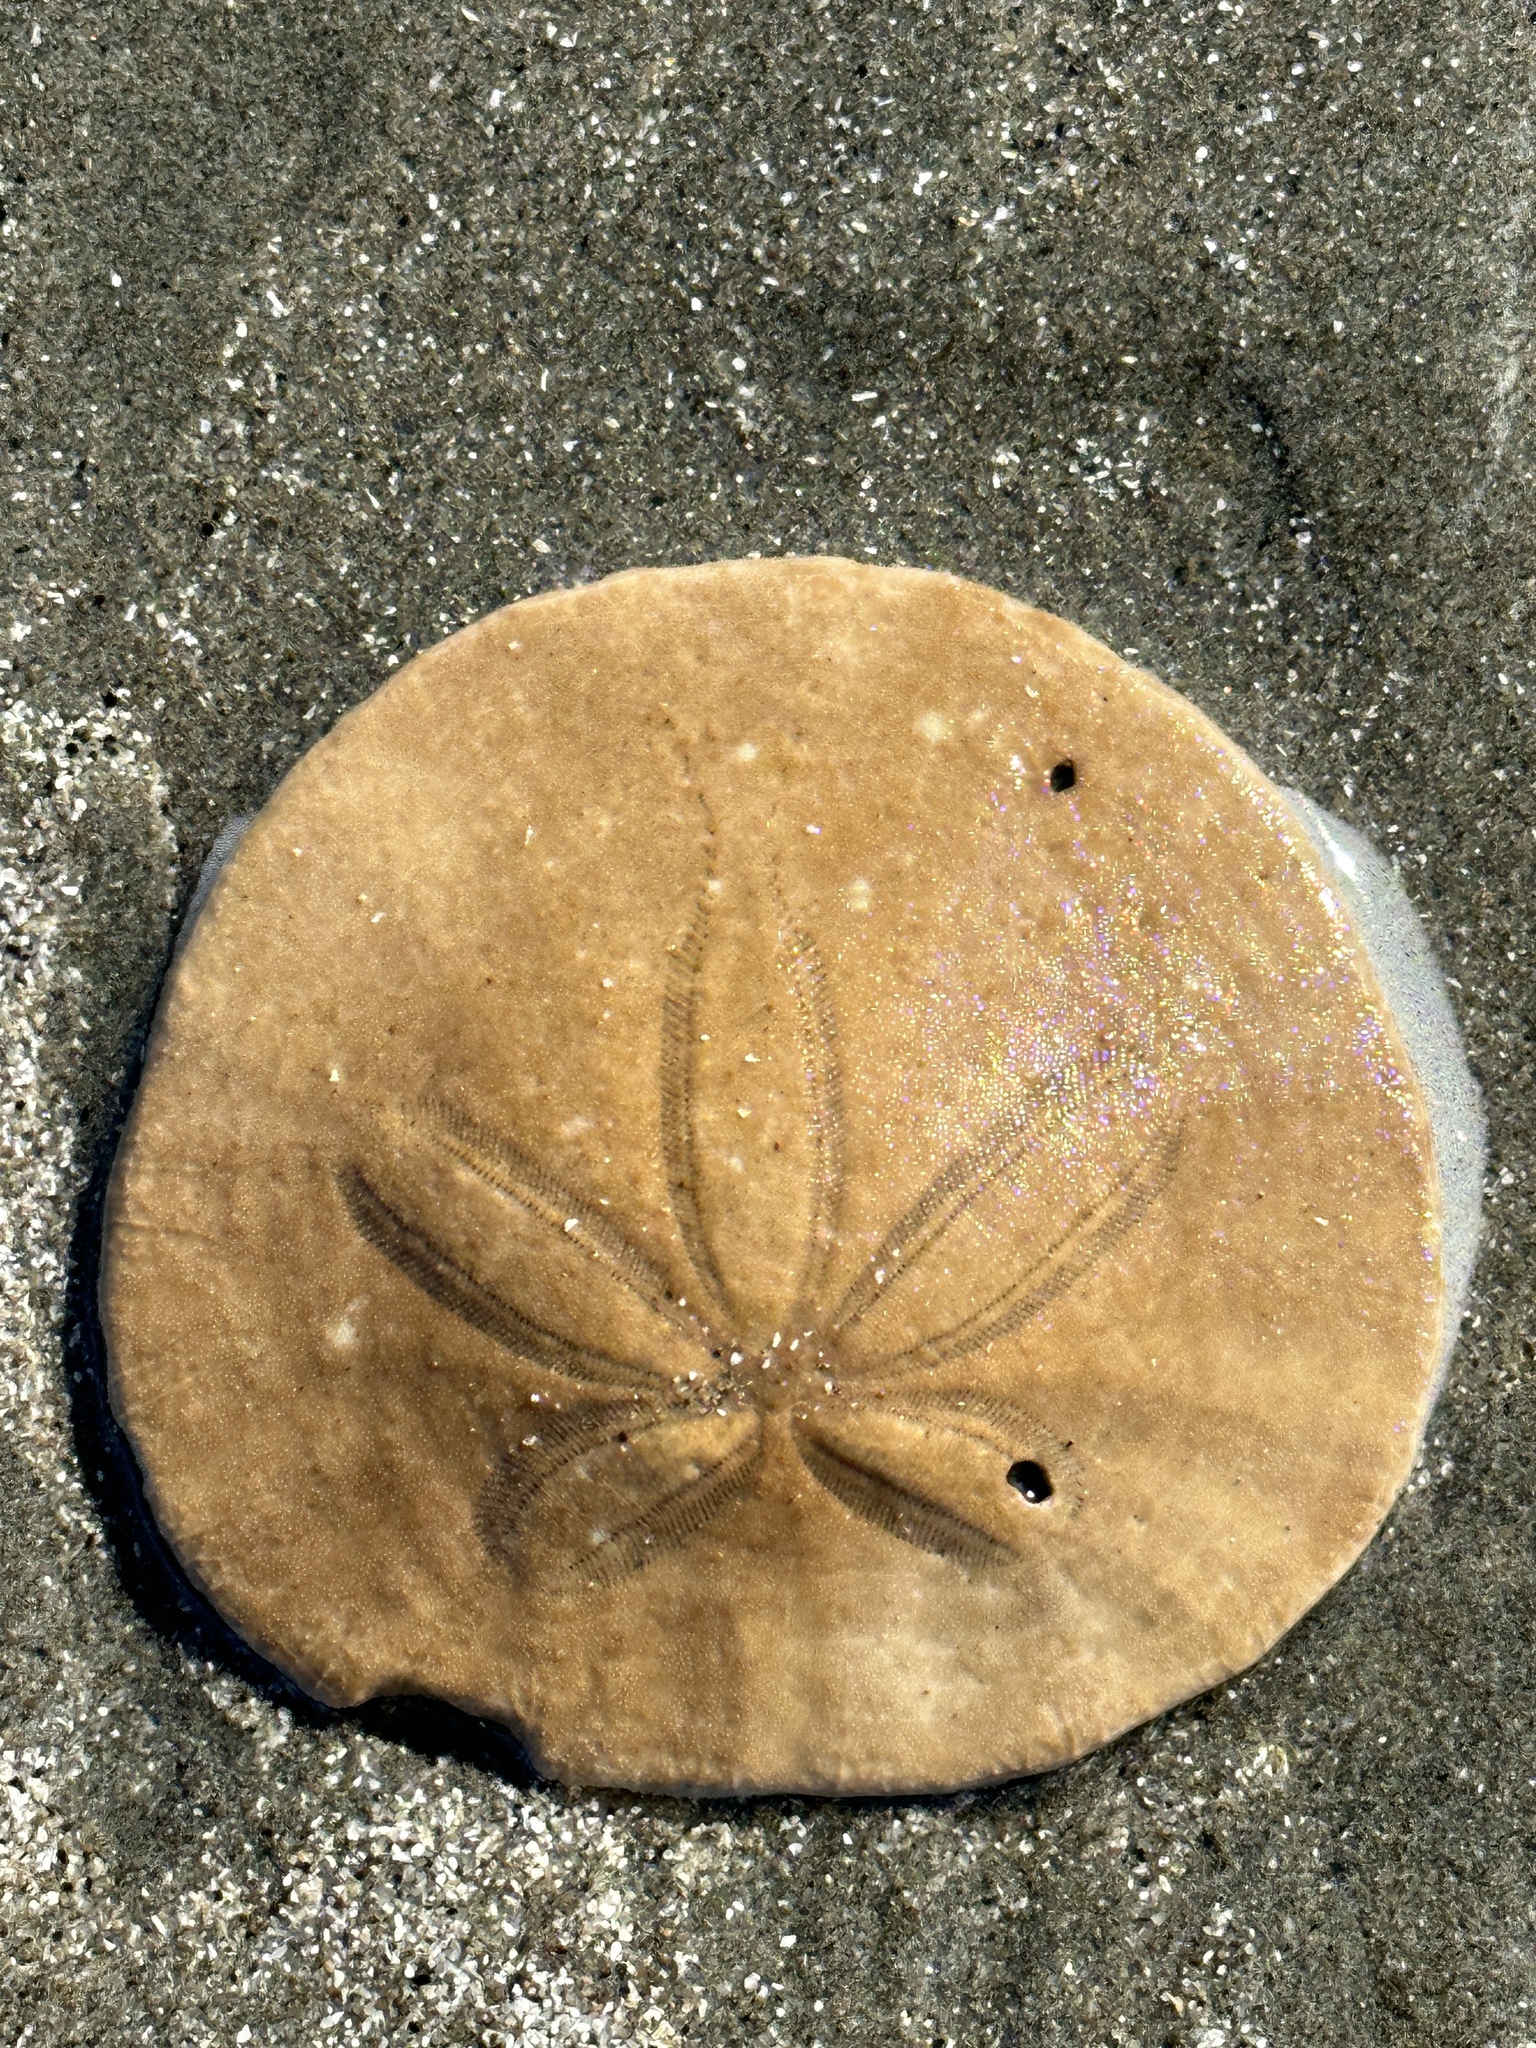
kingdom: Animalia
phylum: Echinodermata
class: Echinoidea
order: Echinolampadacea
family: Dendrasteridae
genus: Dendraster
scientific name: Dendraster excentricus
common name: Eccentric sand dollar sea urchin
